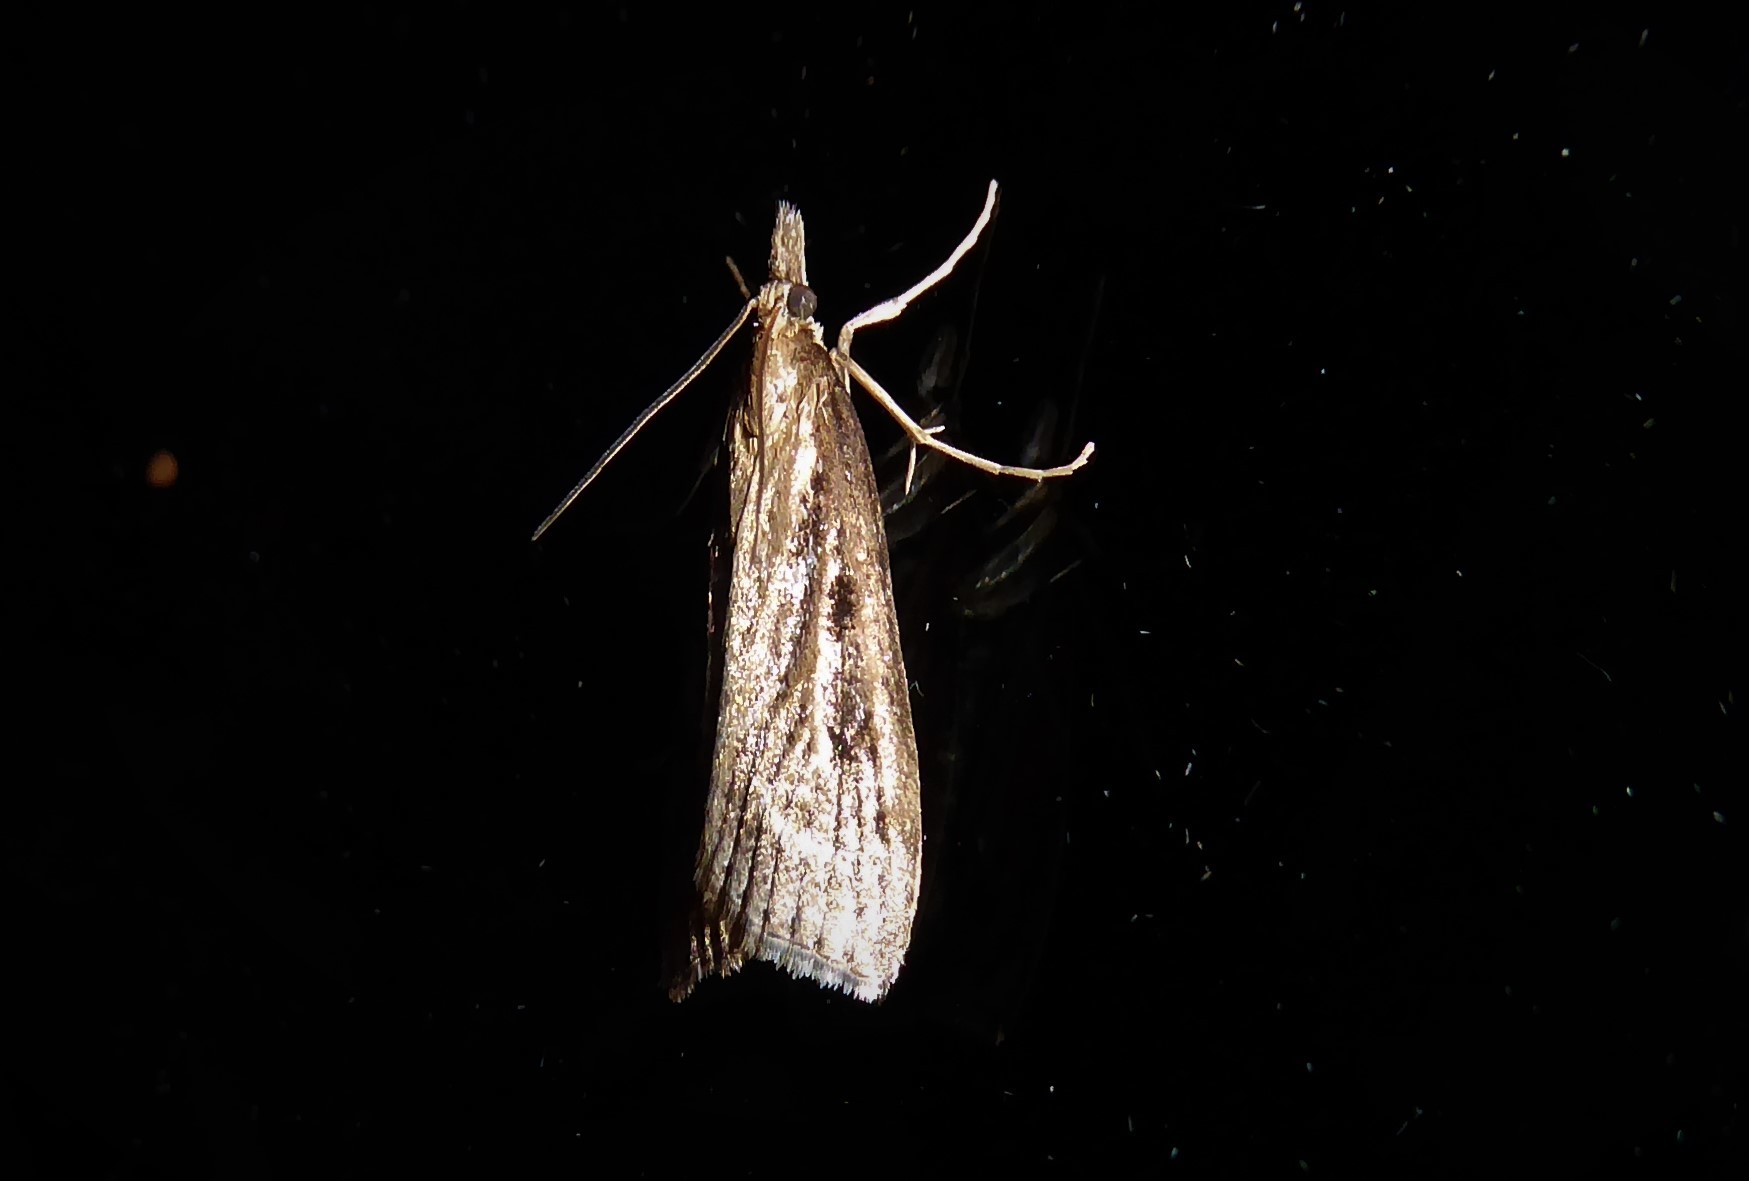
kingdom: Animalia
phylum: Arthropoda
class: Insecta
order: Lepidoptera
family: Crambidae
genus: Eudonia
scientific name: Eudonia octophora
